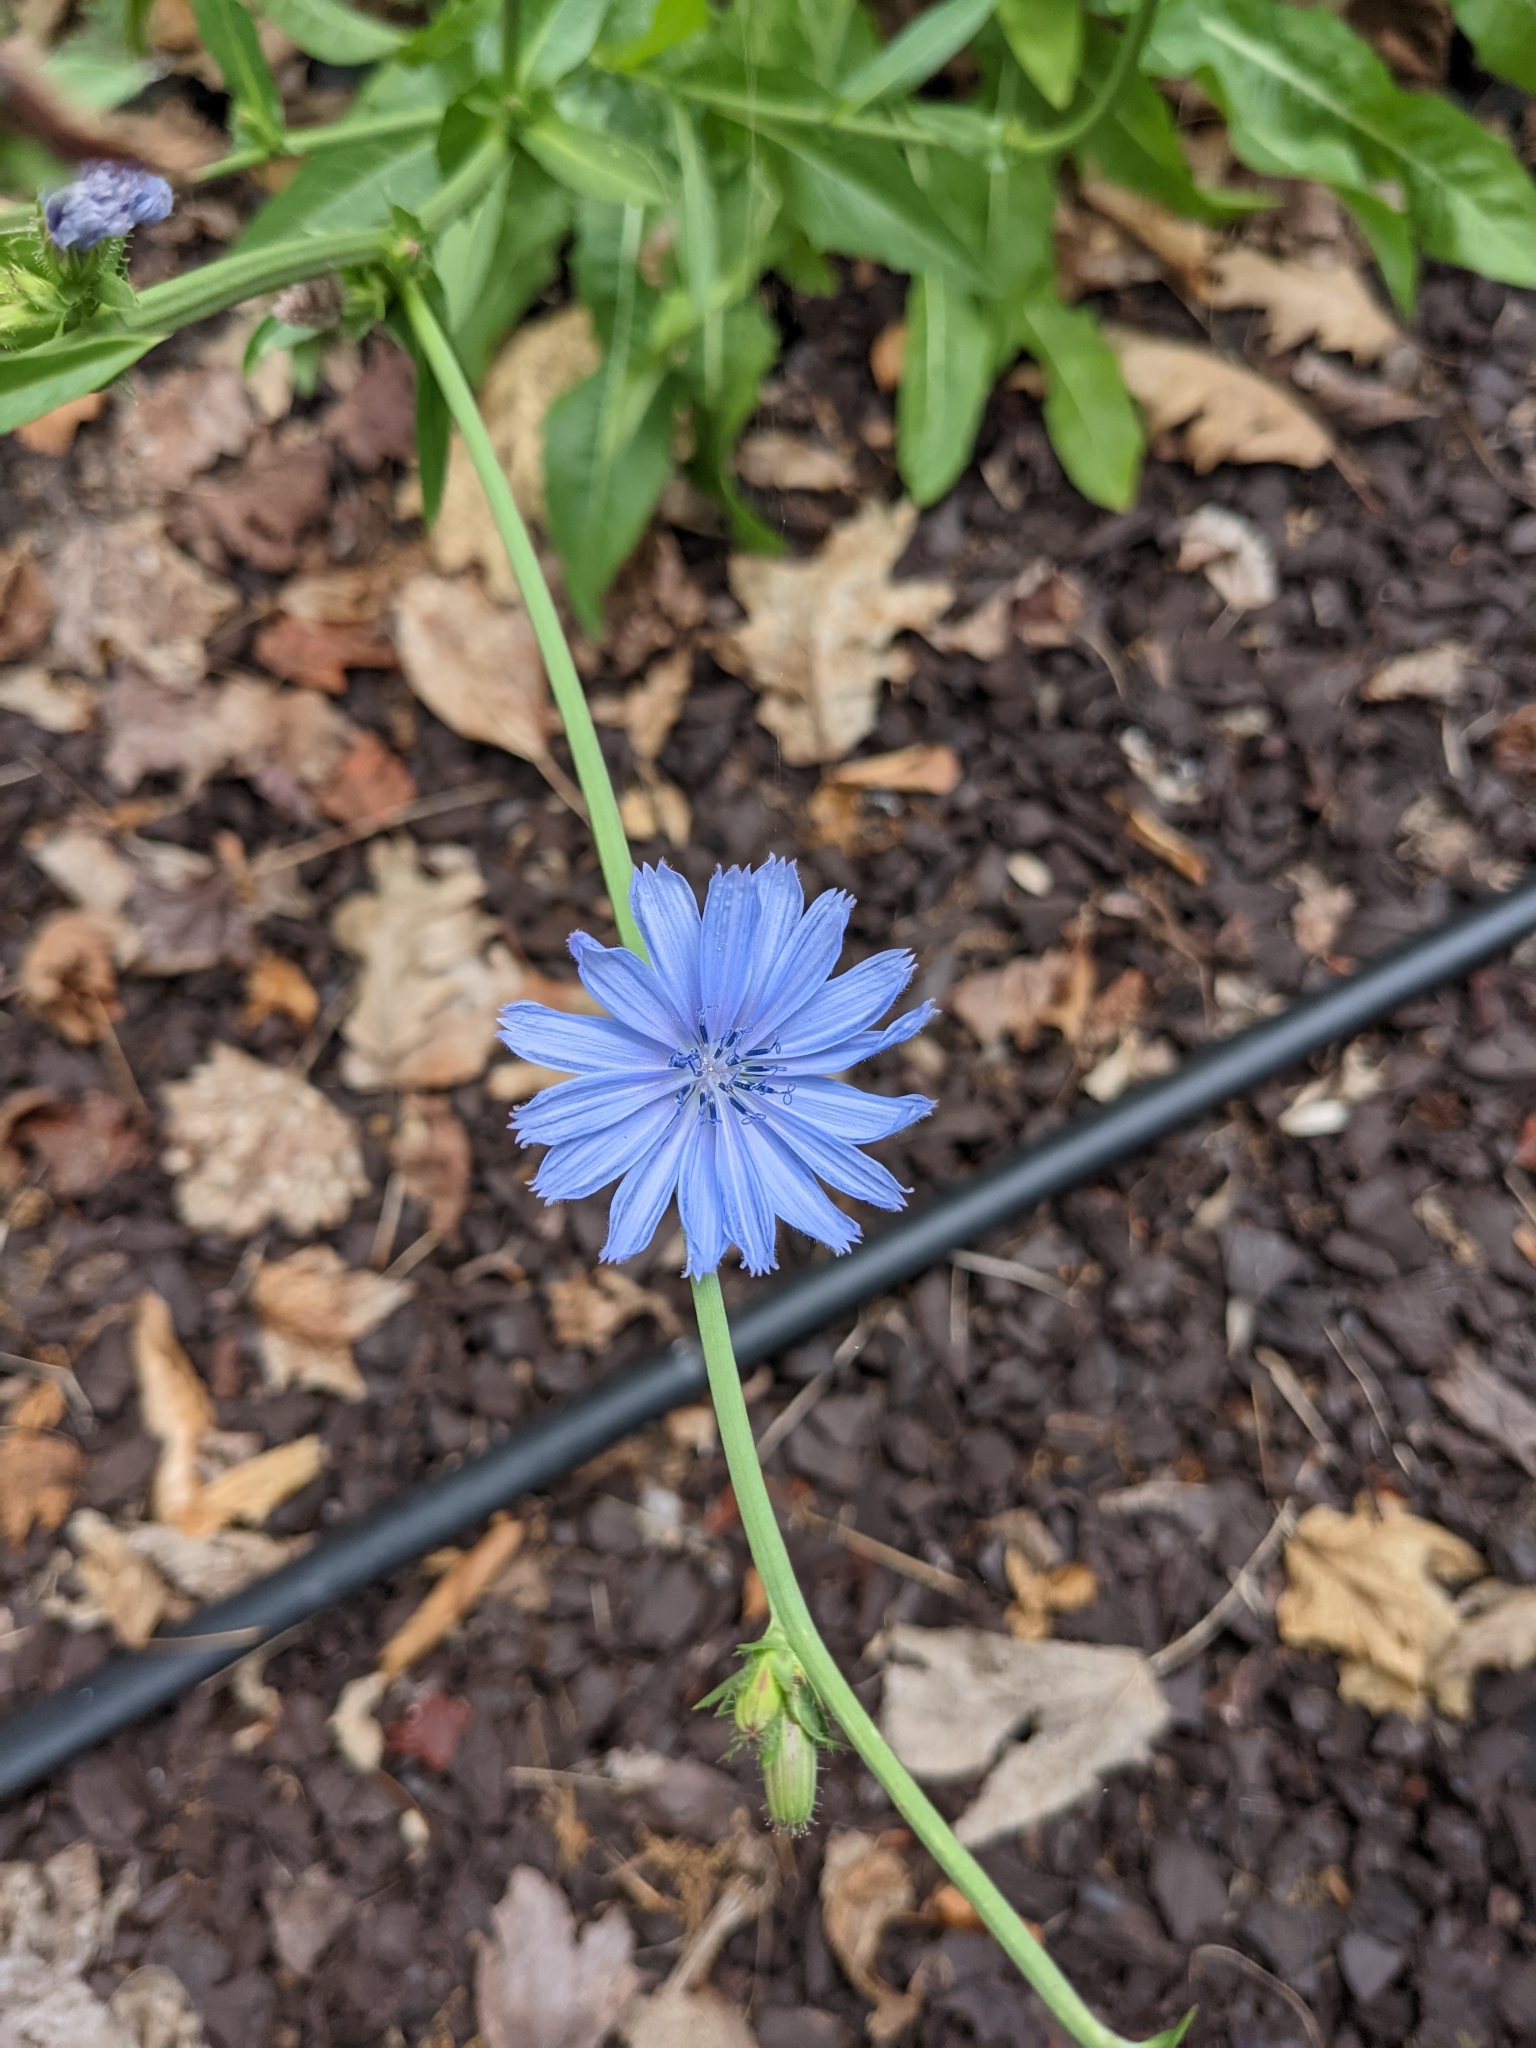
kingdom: Plantae
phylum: Tracheophyta
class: Magnoliopsida
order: Asterales
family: Asteraceae
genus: Cichorium
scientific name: Cichorium intybus
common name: Chicory
